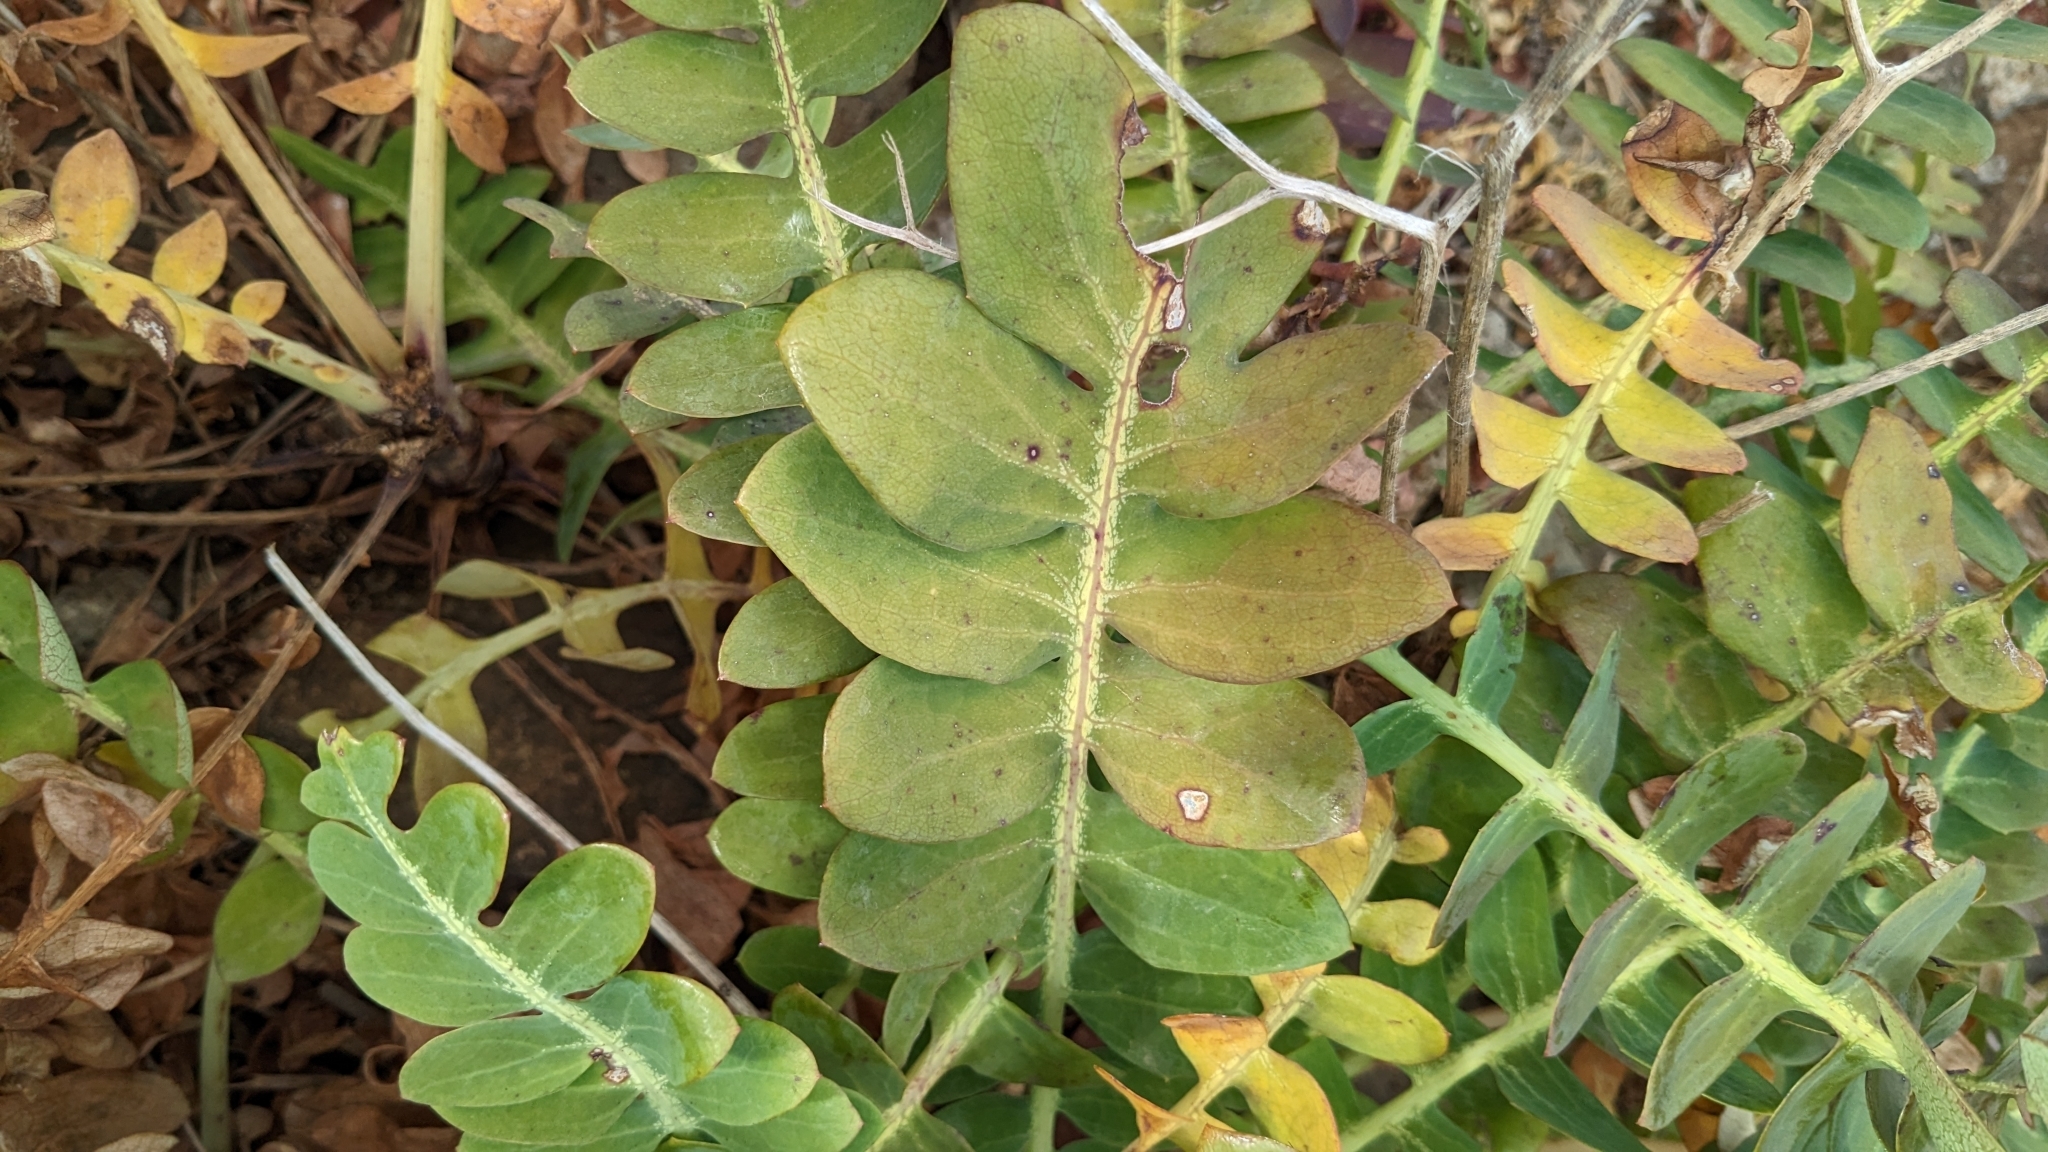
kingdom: Plantae
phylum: Tracheophyta
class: Magnoliopsida
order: Asterales
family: Asteraceae
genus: Sonchus
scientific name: Sonchus latifolius
